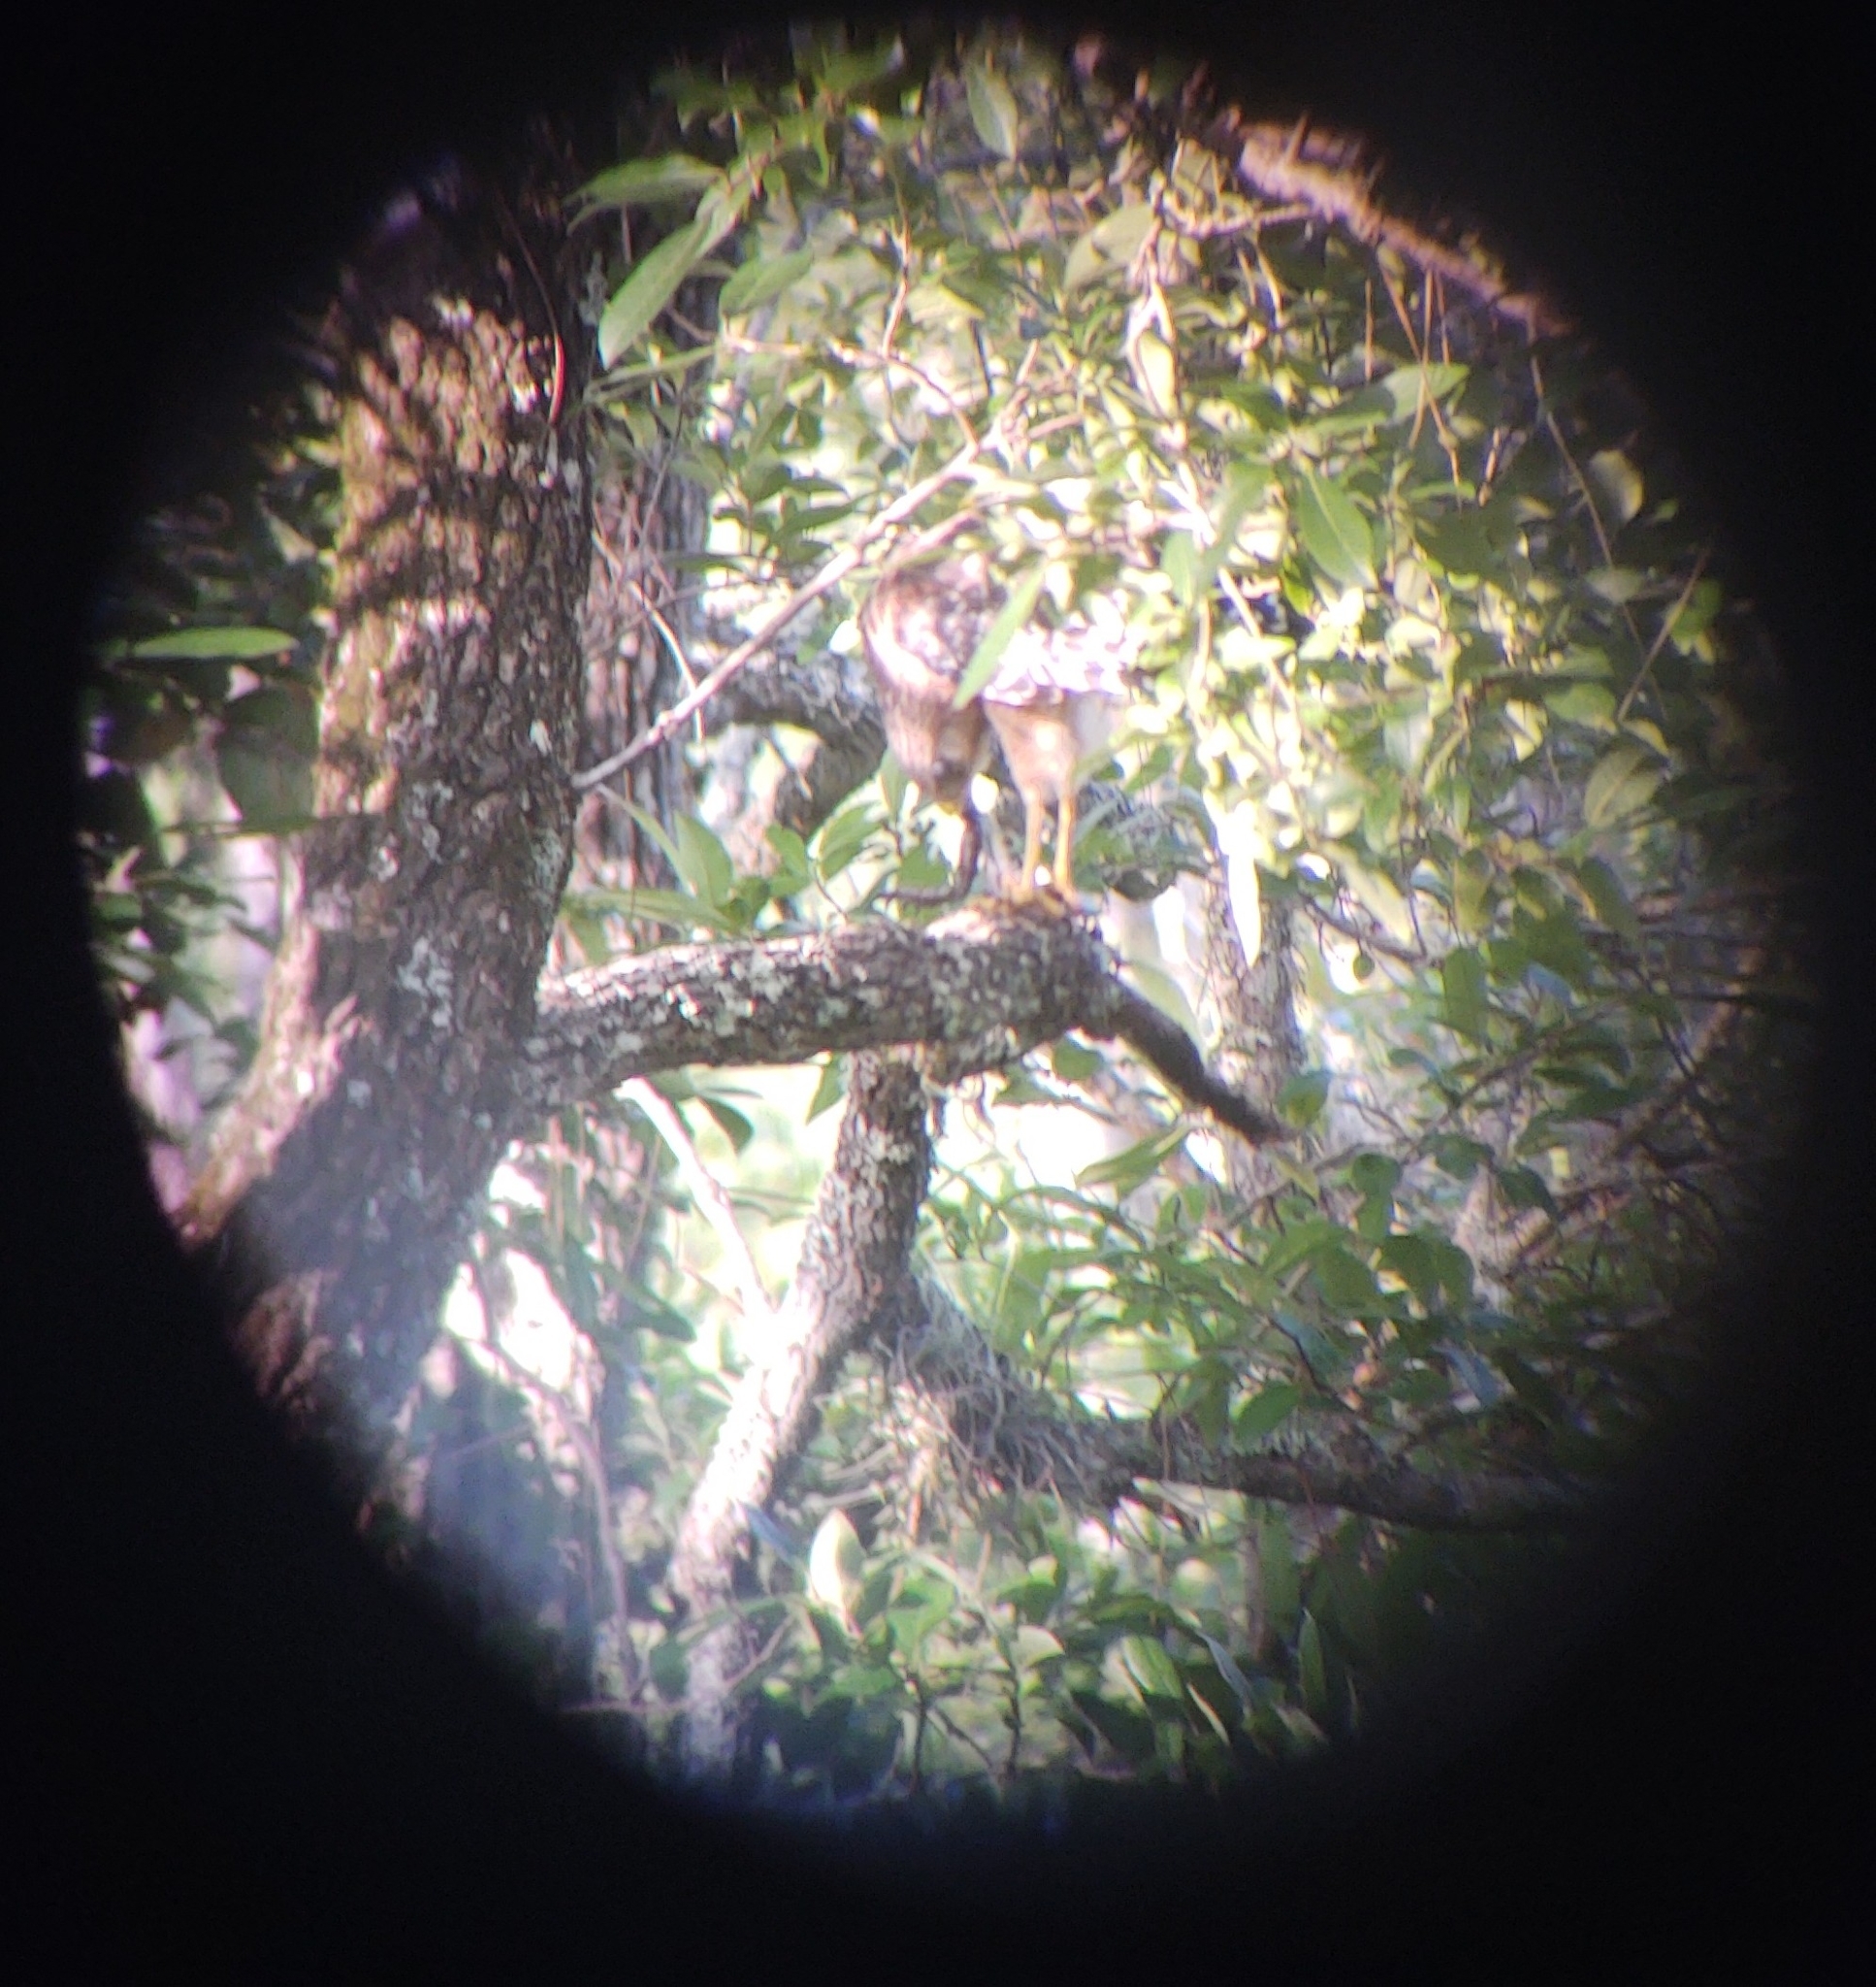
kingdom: Animalia
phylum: Chordata
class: Aves
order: Accipitriformes
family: Accipitridae
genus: Buteo
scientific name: Buteo lineatus
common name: Red-shouldered hawk
